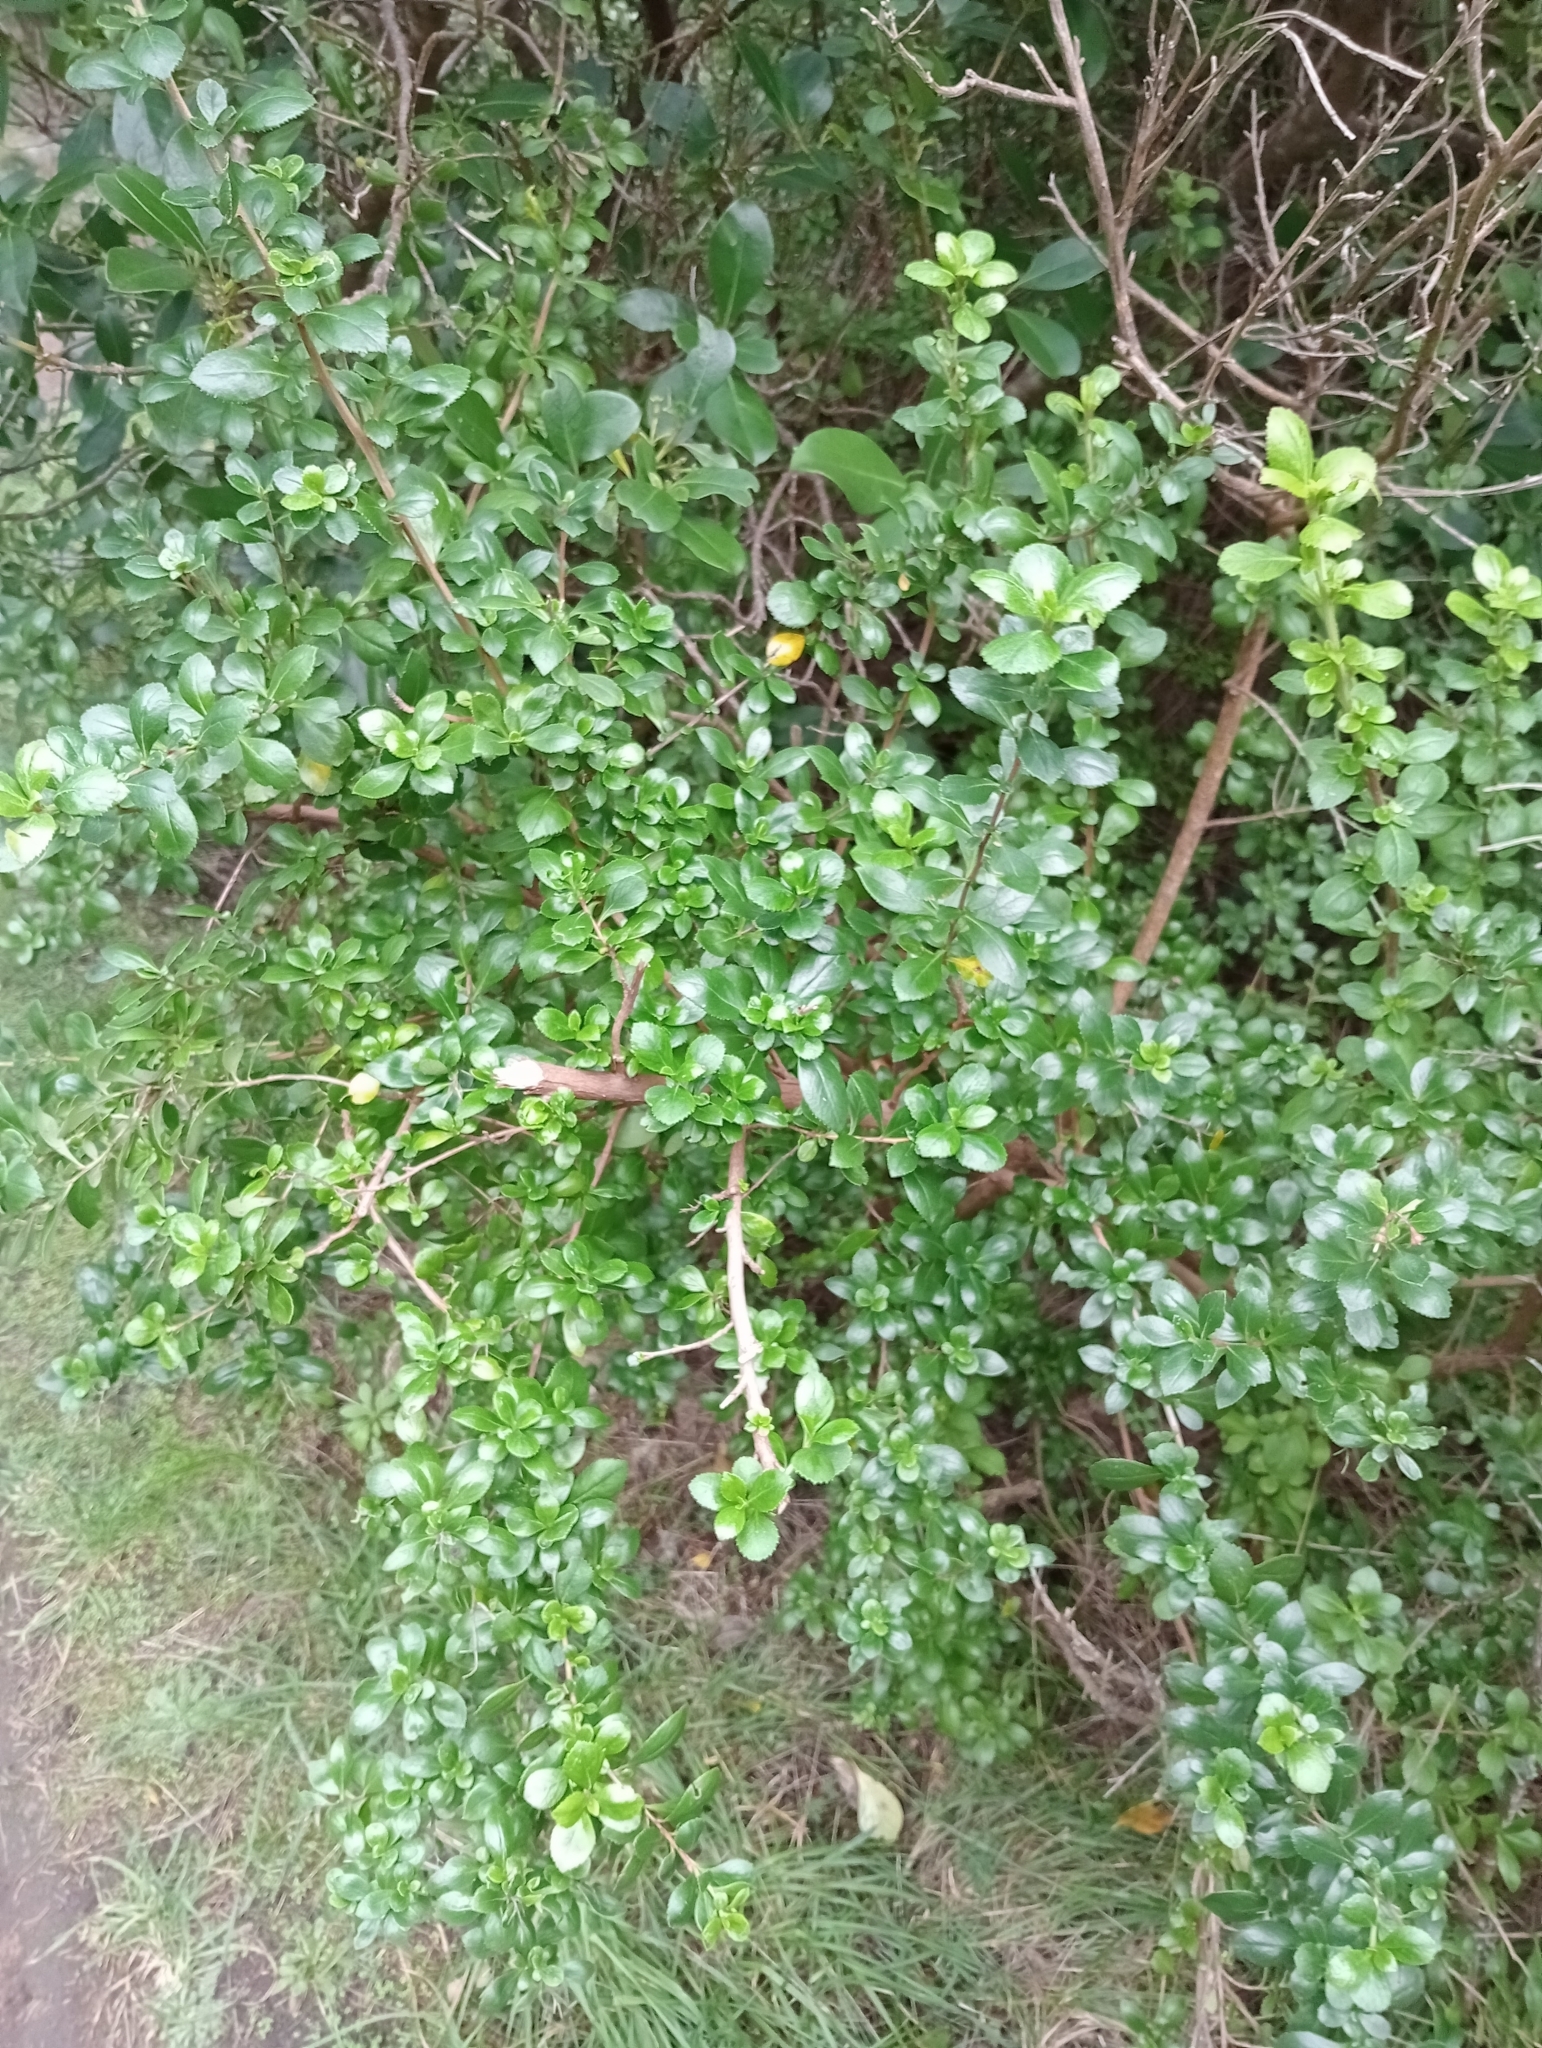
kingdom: Plantae
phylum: Tracheophyta
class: Magnoliopsida
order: Escalloniales
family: Escalloniaceae
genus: Escallonia
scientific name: Escallonia rubra
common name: Redclaws
